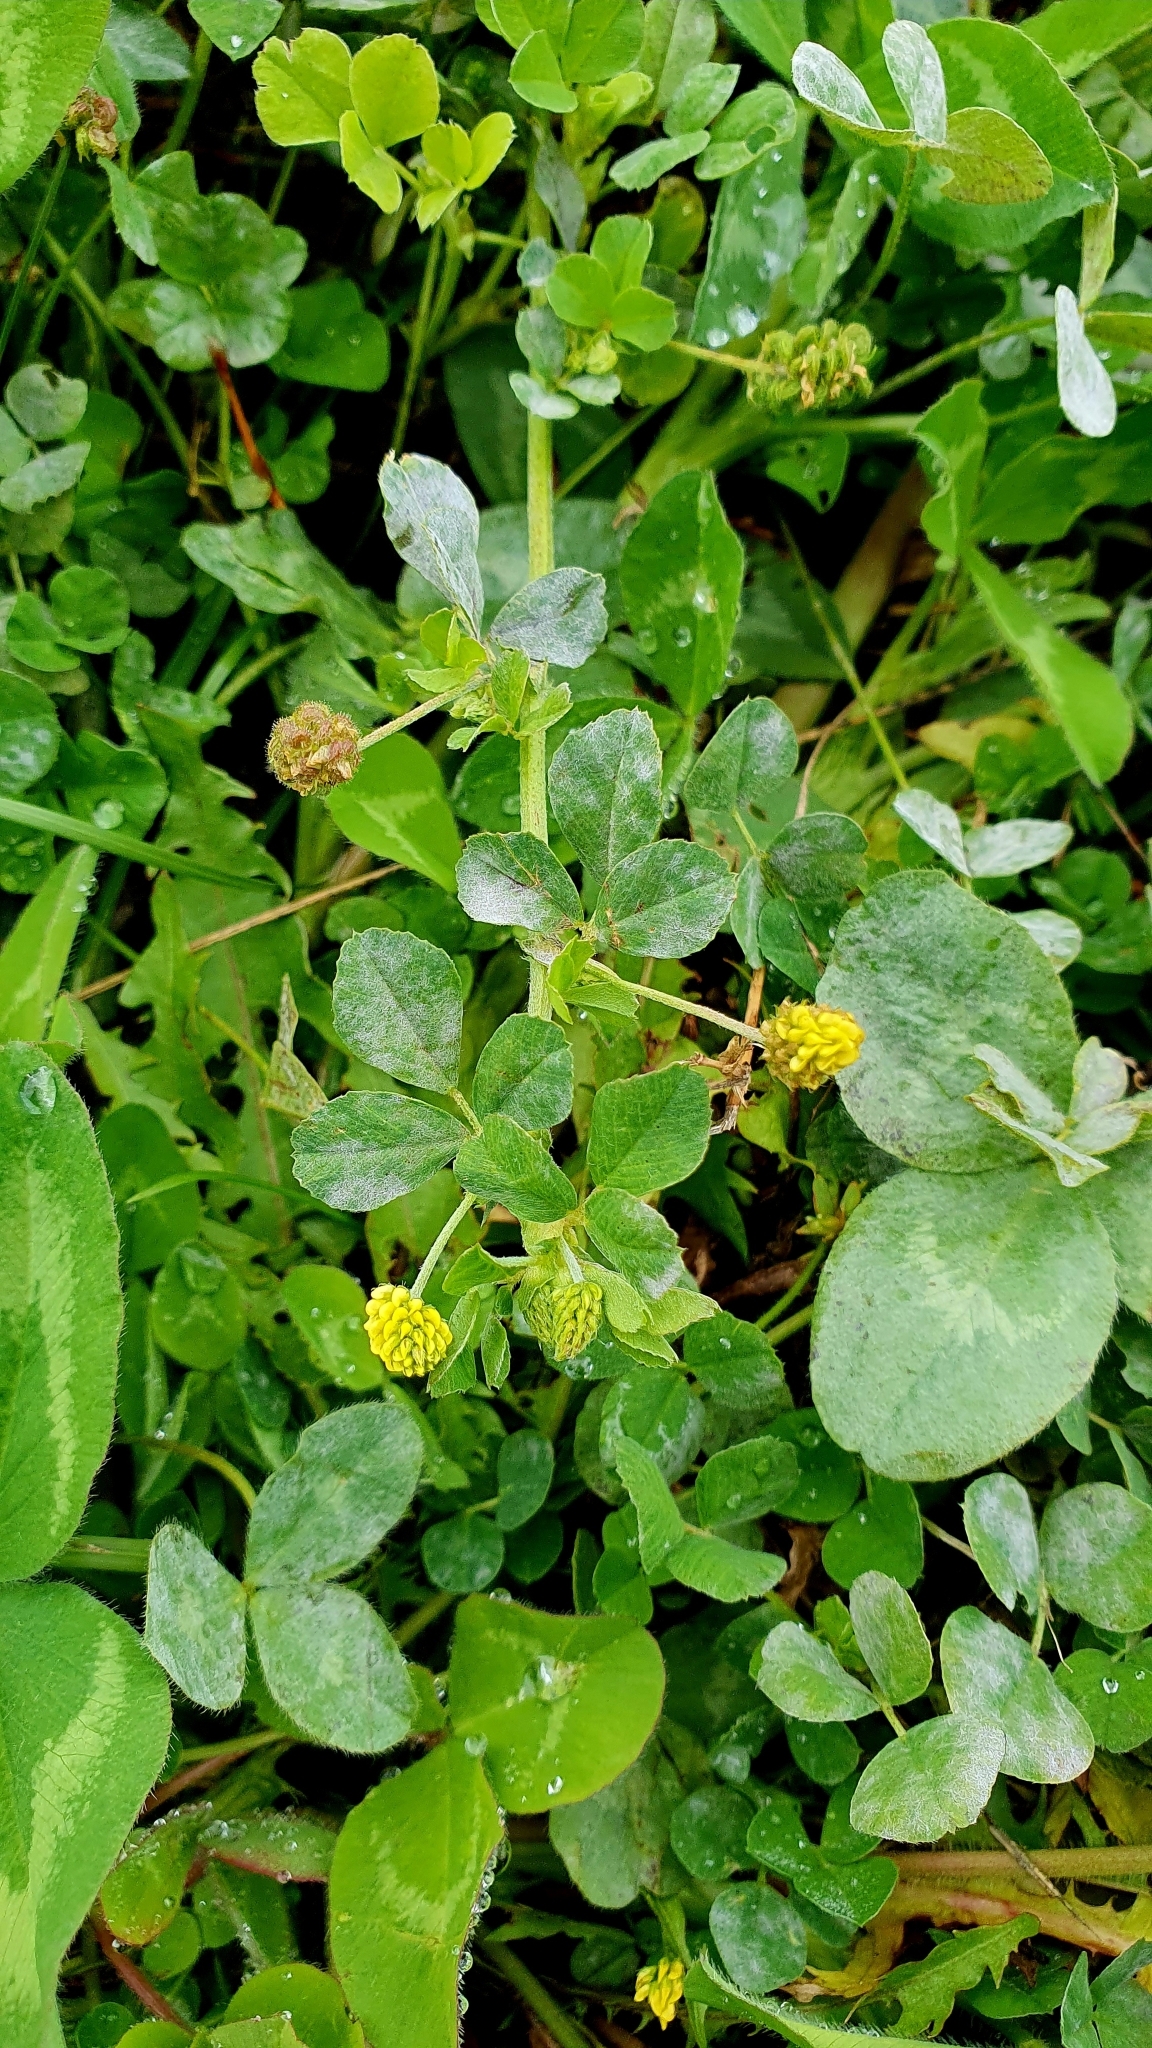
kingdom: Plantae
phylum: Tracheophyta
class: Magnoliopsida
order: Fabales
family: Fabaceae
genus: Medicago
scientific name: Medicago lupulina
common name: Black medick
